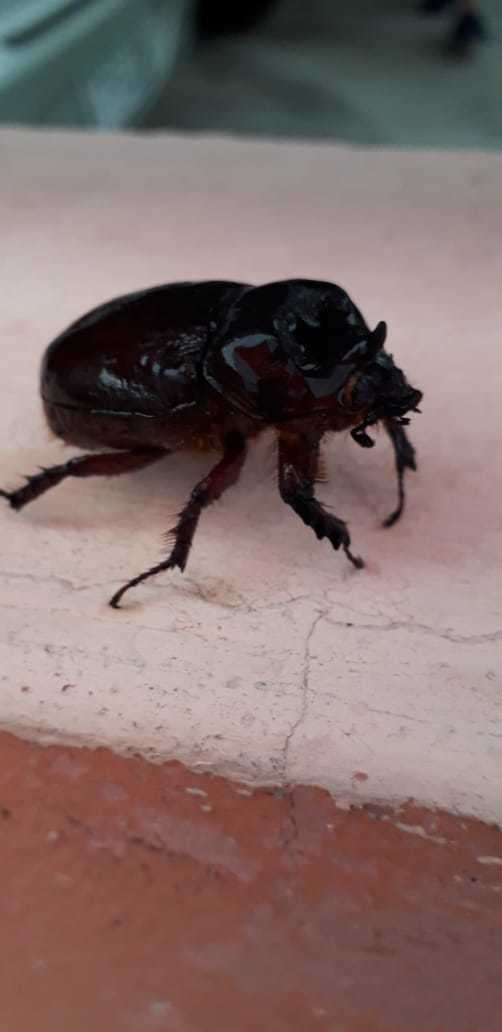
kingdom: Animalia
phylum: Arthropoda
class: Insecta
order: Coleoptera
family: Scarabaeidae
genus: Strategus
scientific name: Strategus aloeus
